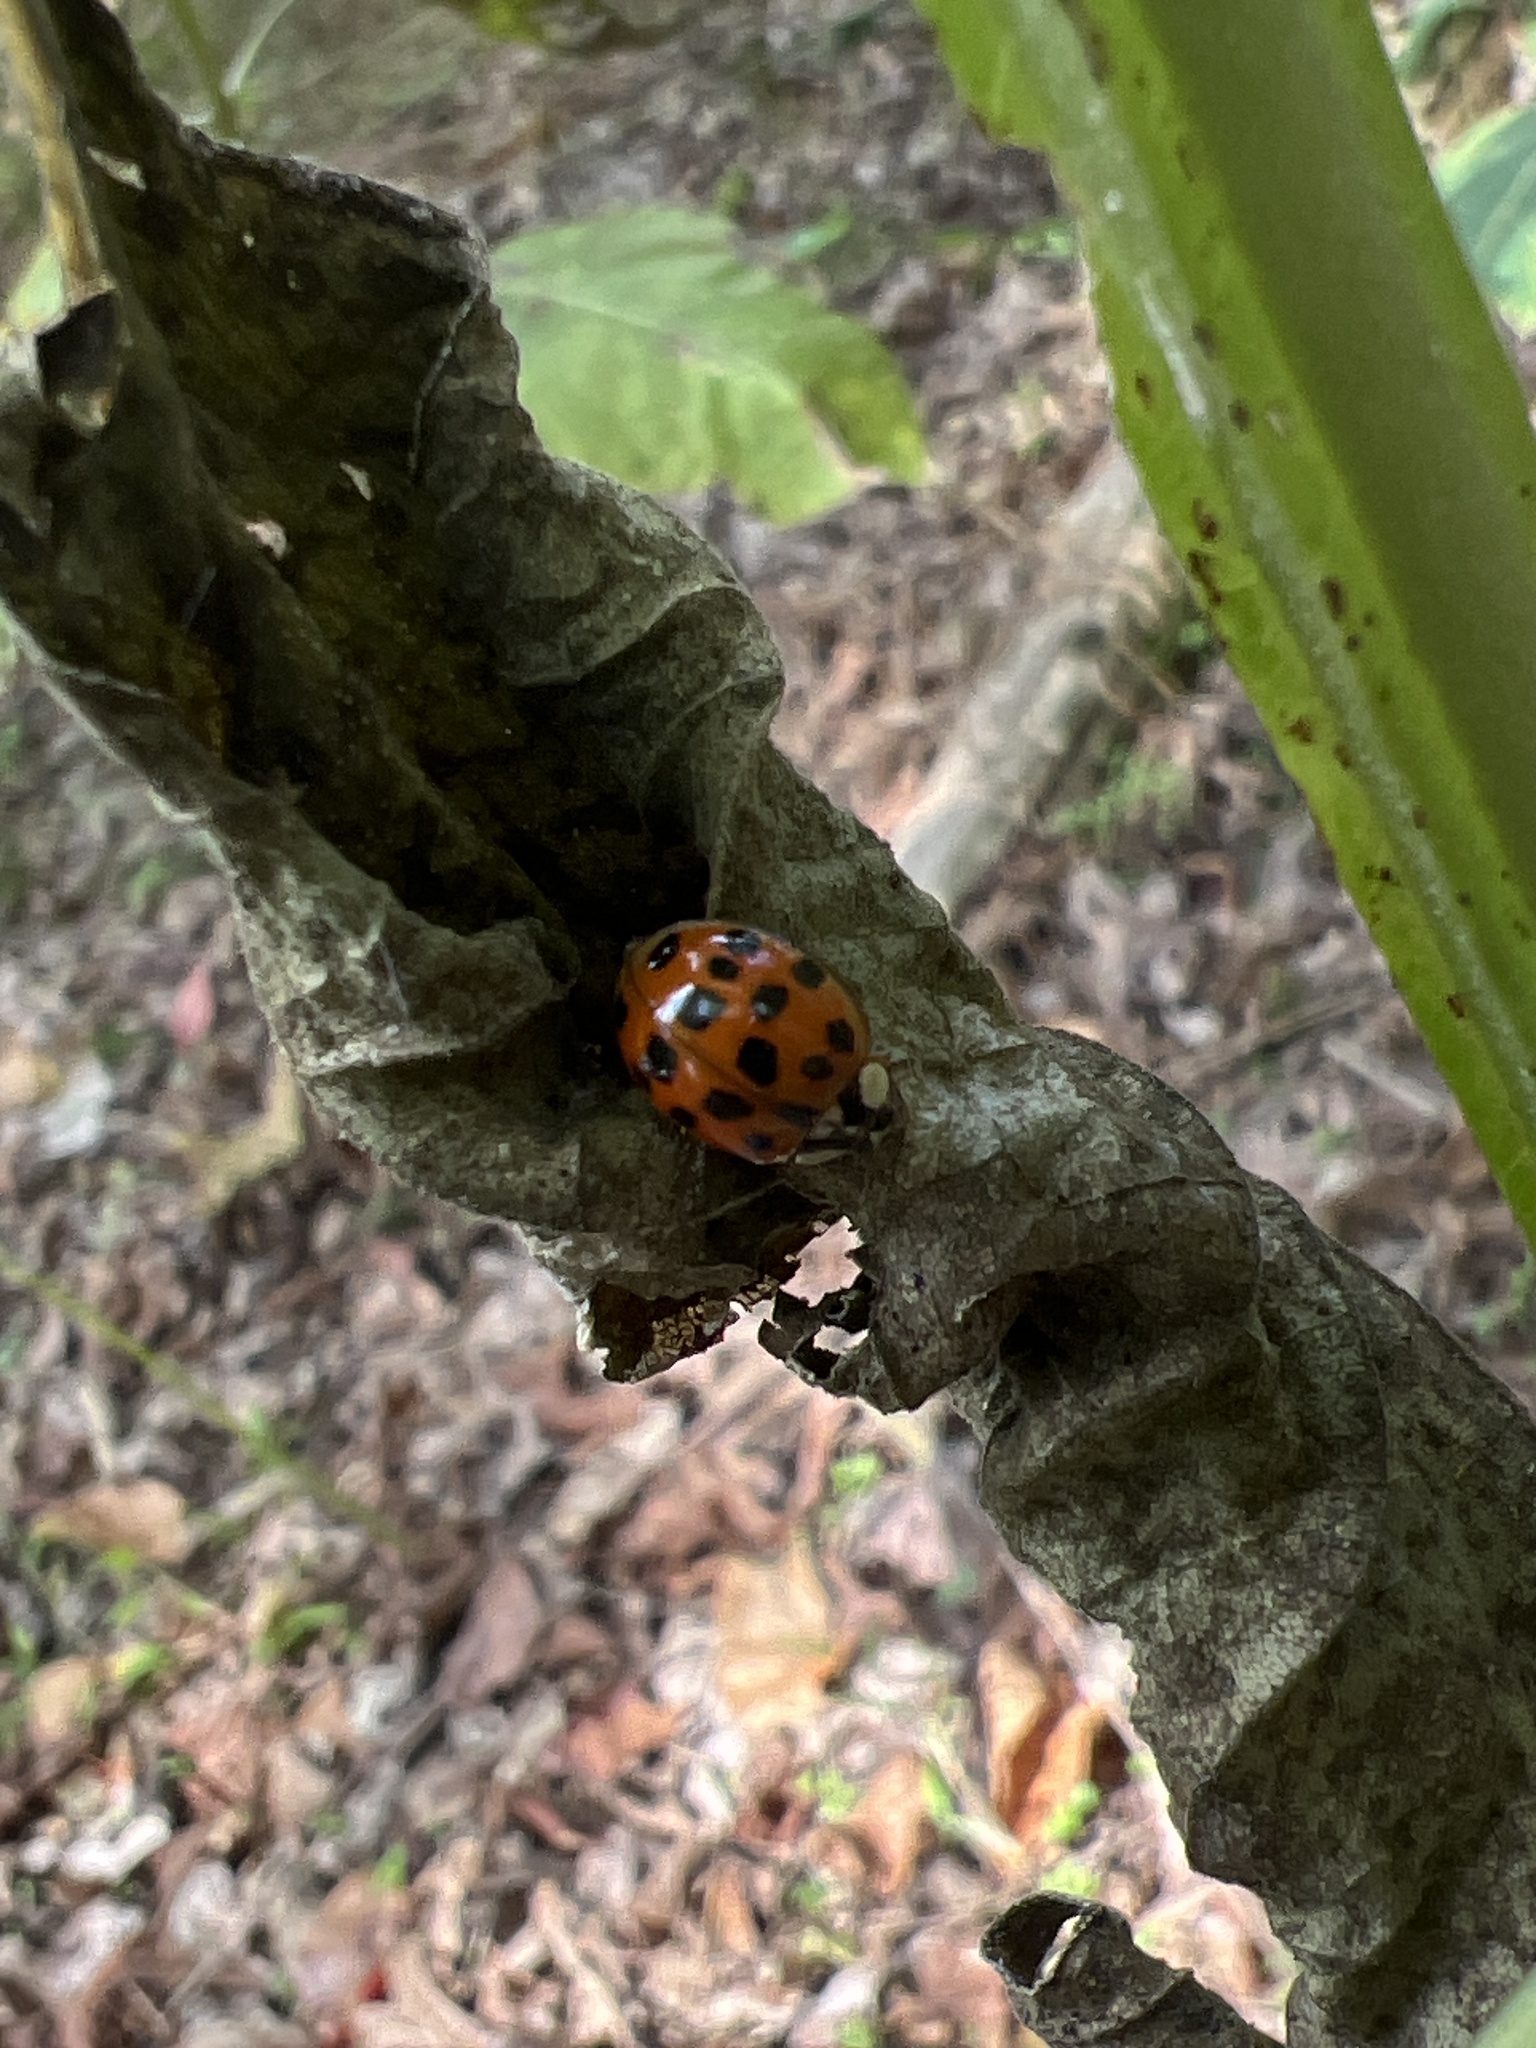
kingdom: Animalia
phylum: Arthropoda
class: Insecta
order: Coleoptera
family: Coccinellidae
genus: Harmonia
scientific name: Harmonia axyridis
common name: Harlequin ladybird
